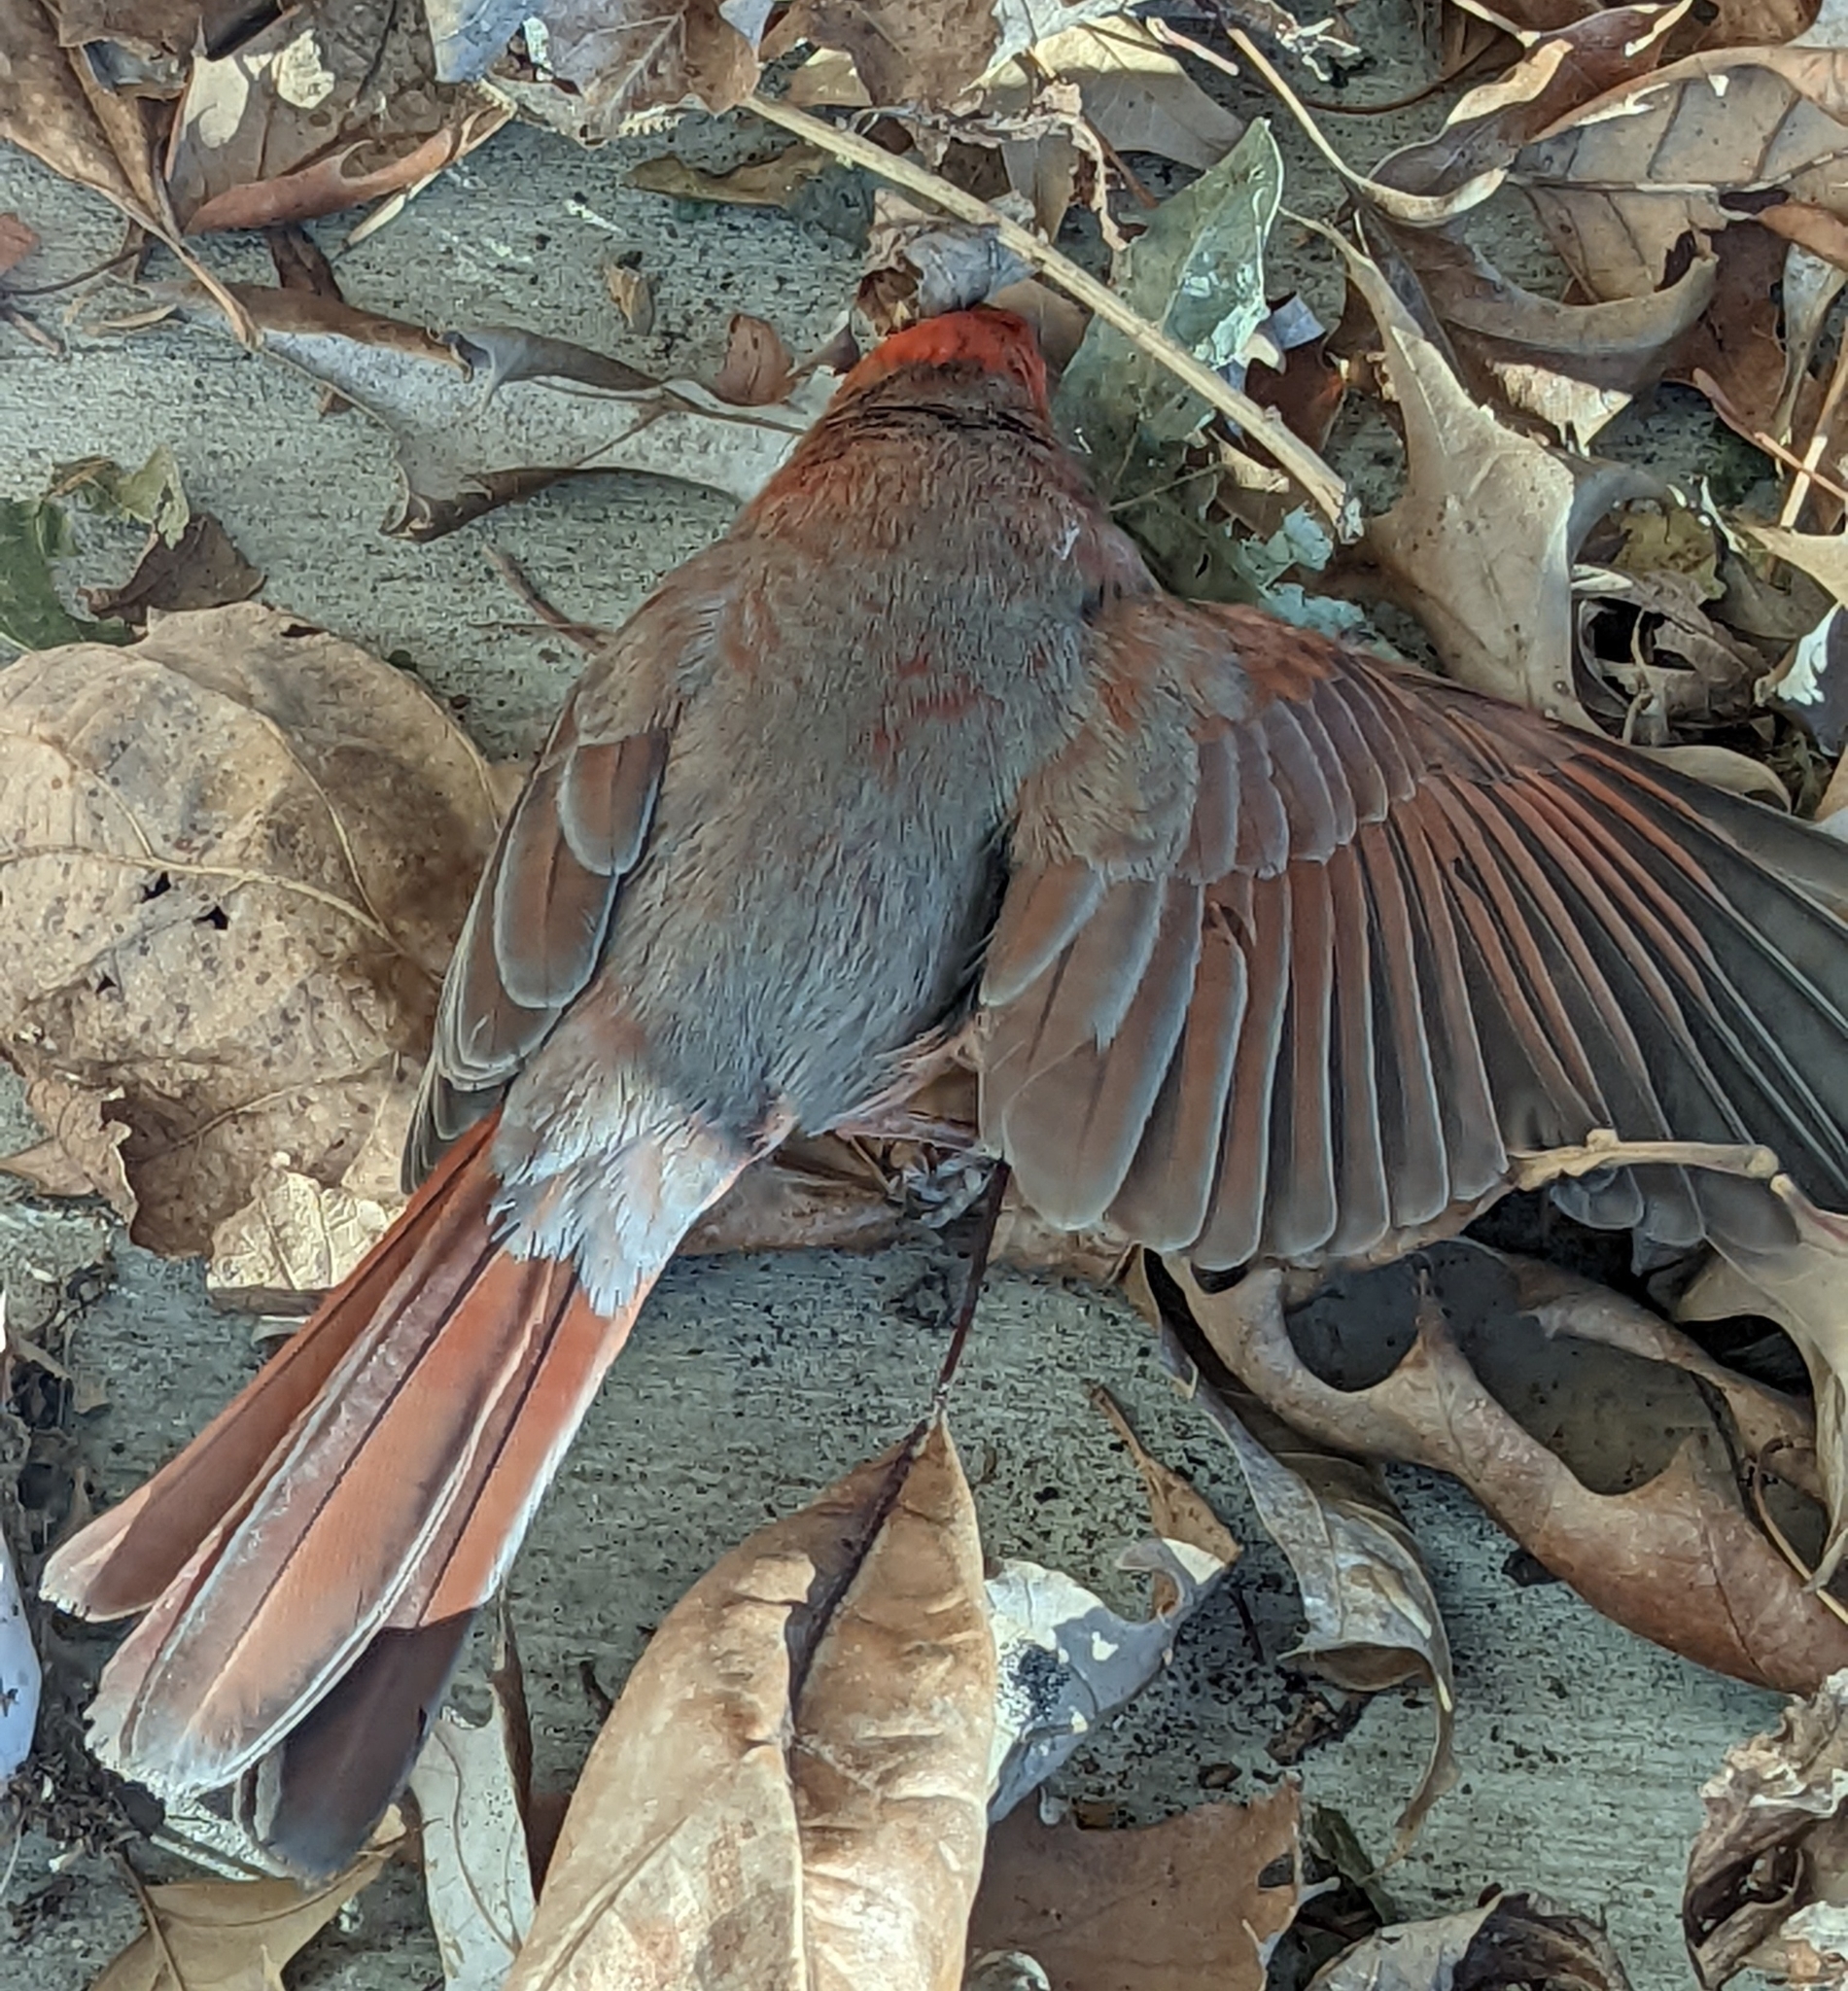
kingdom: Animalia
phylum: Chordata
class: Aves
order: Passeriformes
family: Cardinalidae
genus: Cardinalis
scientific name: Cardinalis cardinalis
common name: Northern cardinal
